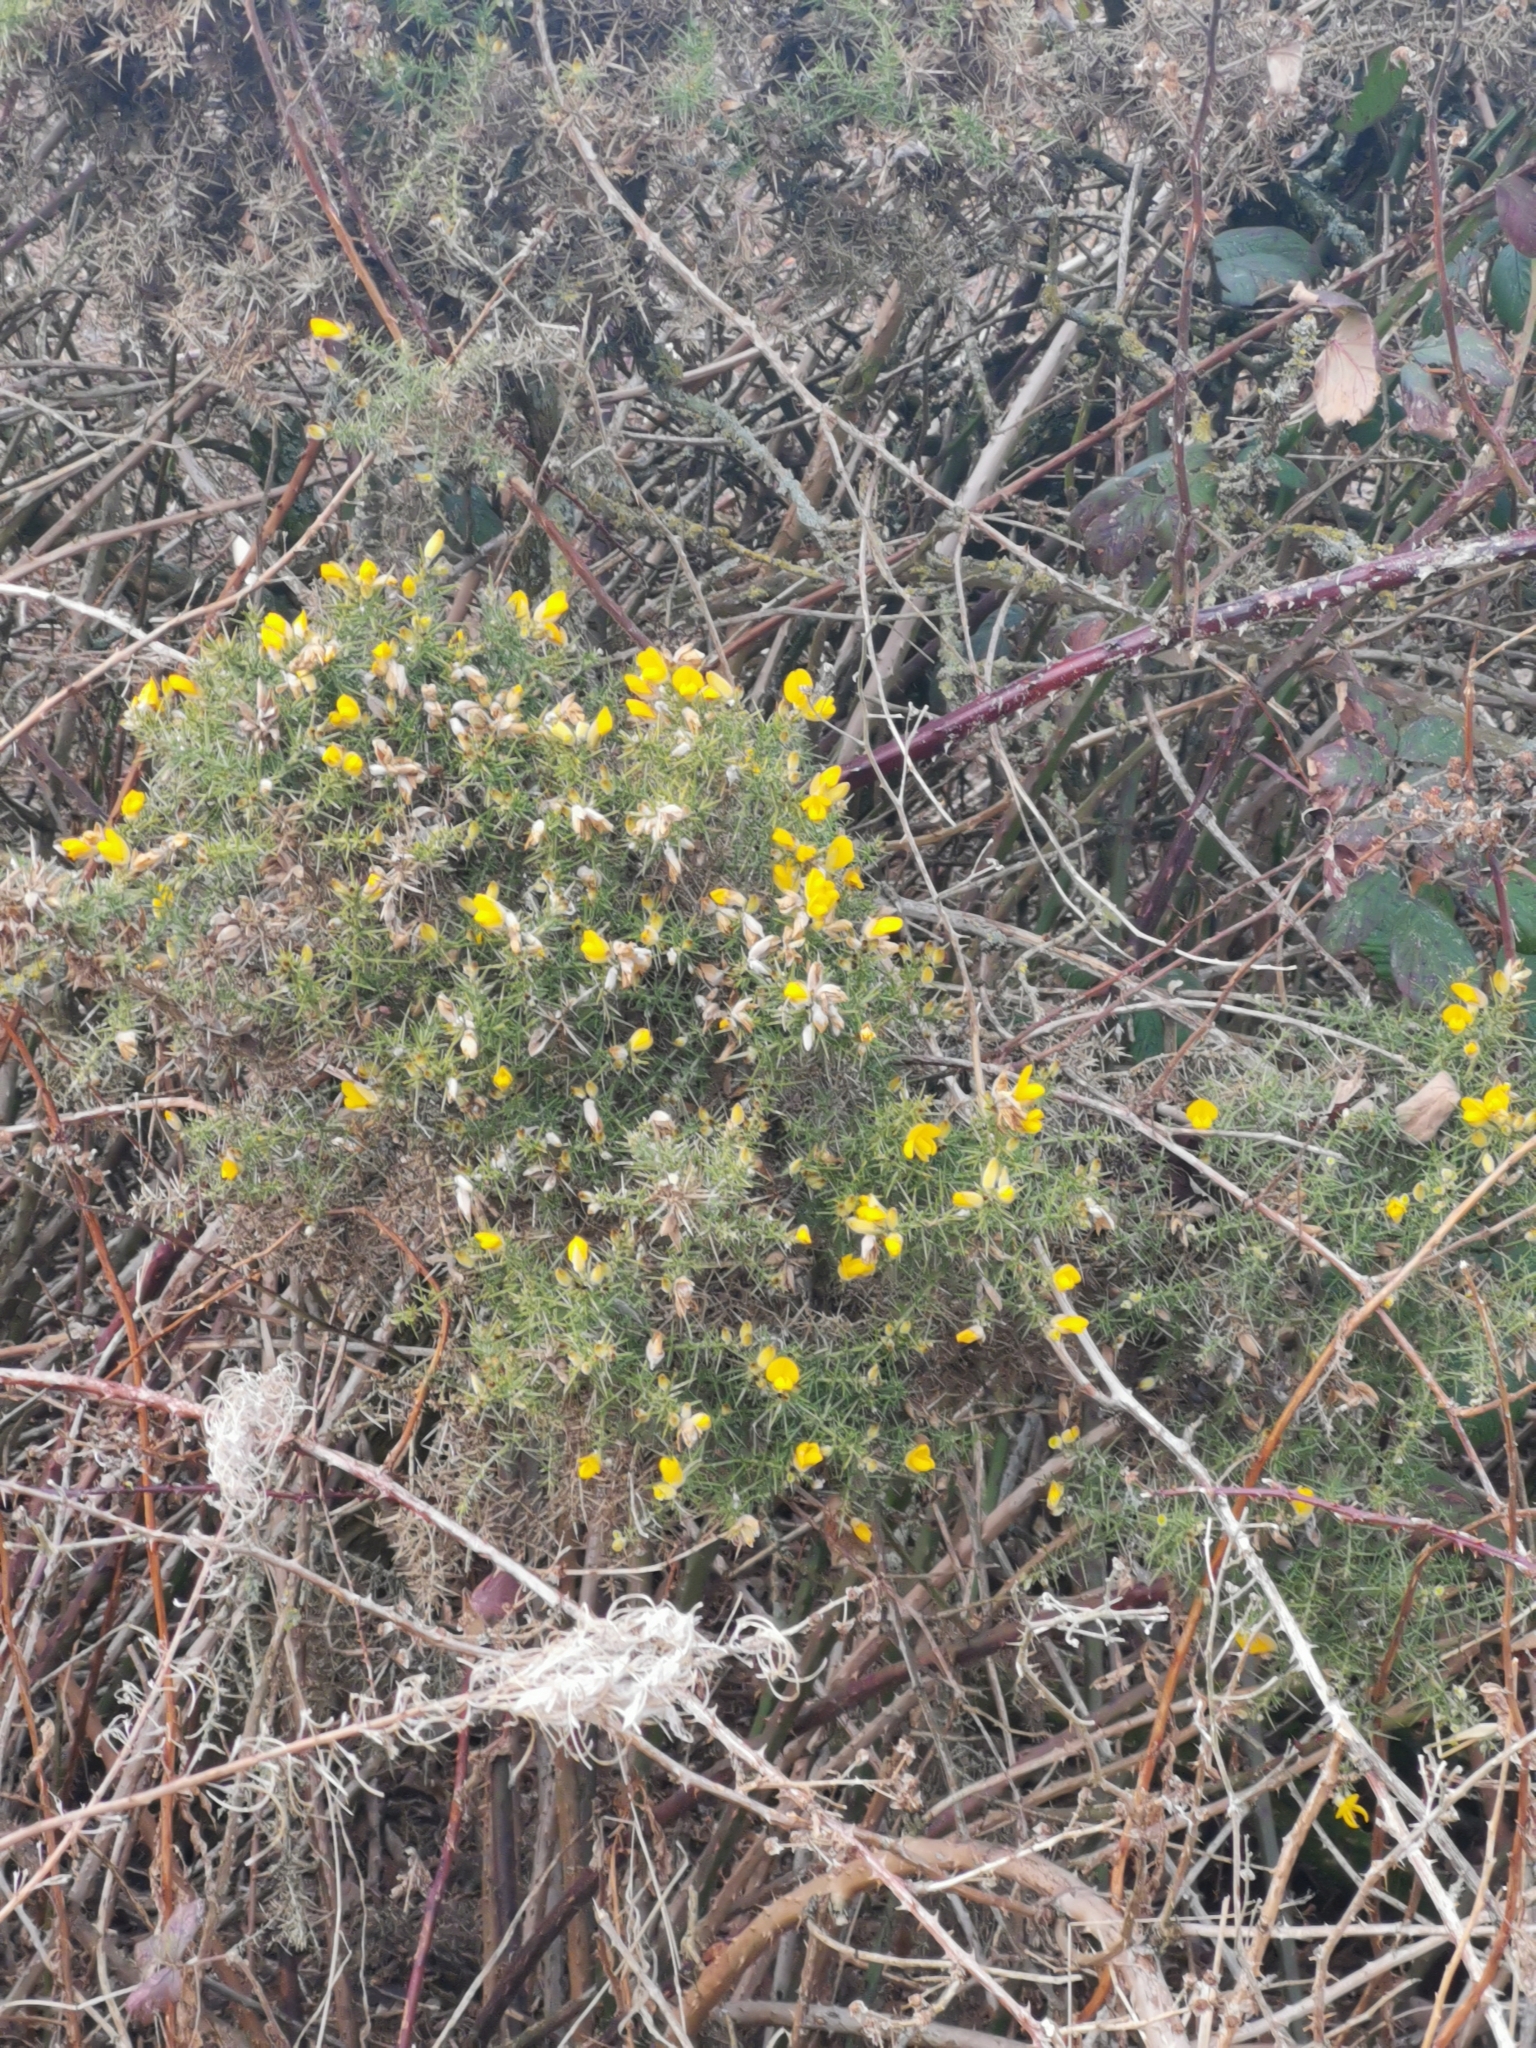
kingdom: Plantae
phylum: Tracheophyta
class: Magnoliopsida
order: Fabales
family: Fabaceae
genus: Ulex
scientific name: Ulex europaeus
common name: Common gorse
